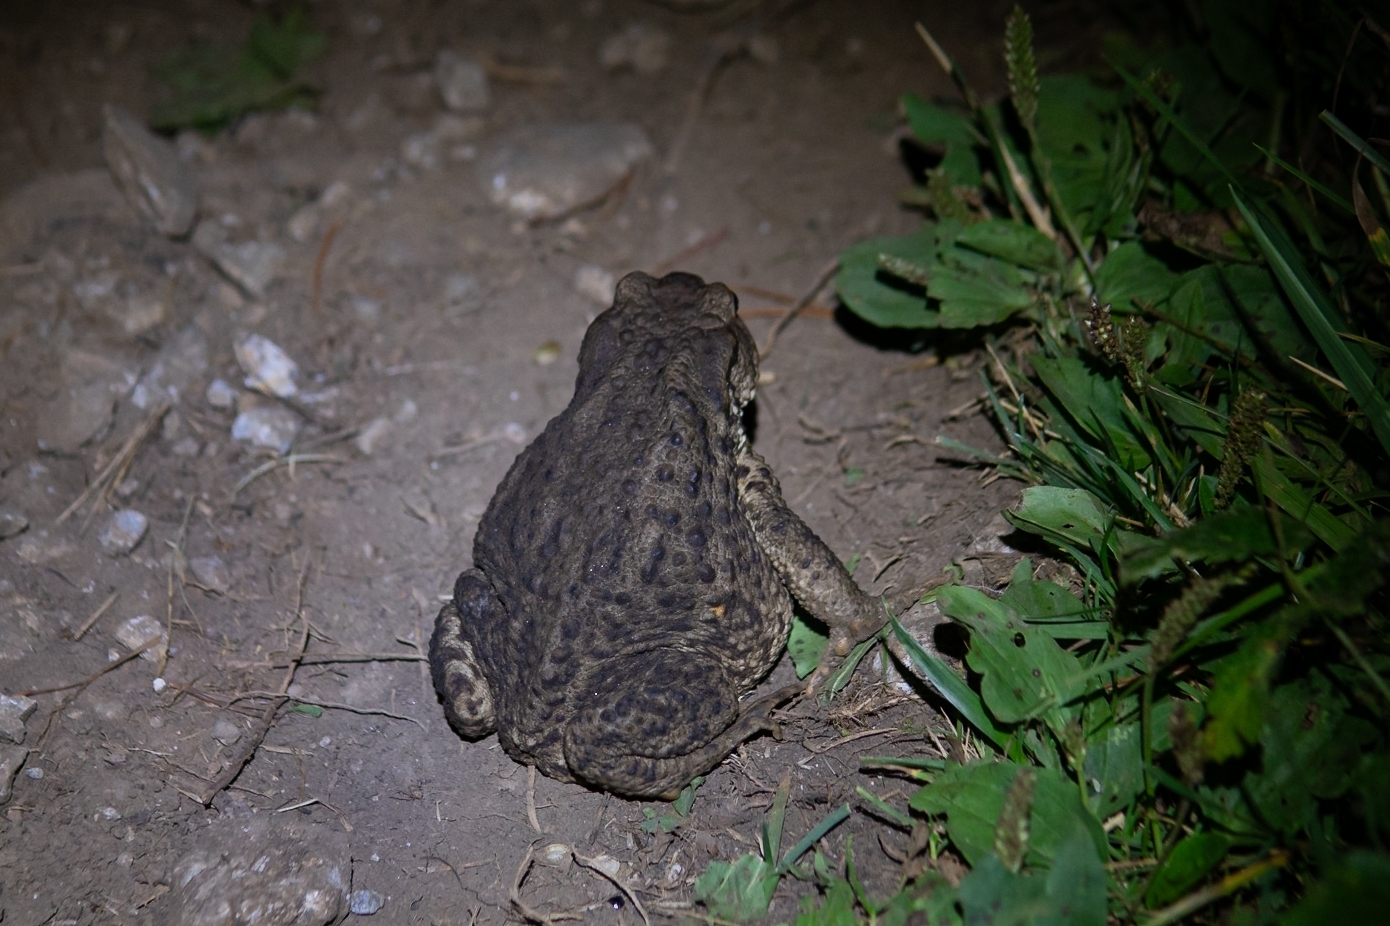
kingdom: Animalia
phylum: Chordata
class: Amphibia
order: Anura
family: Bufonidae
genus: Bufo
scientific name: Bufo bufo
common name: Common toad
